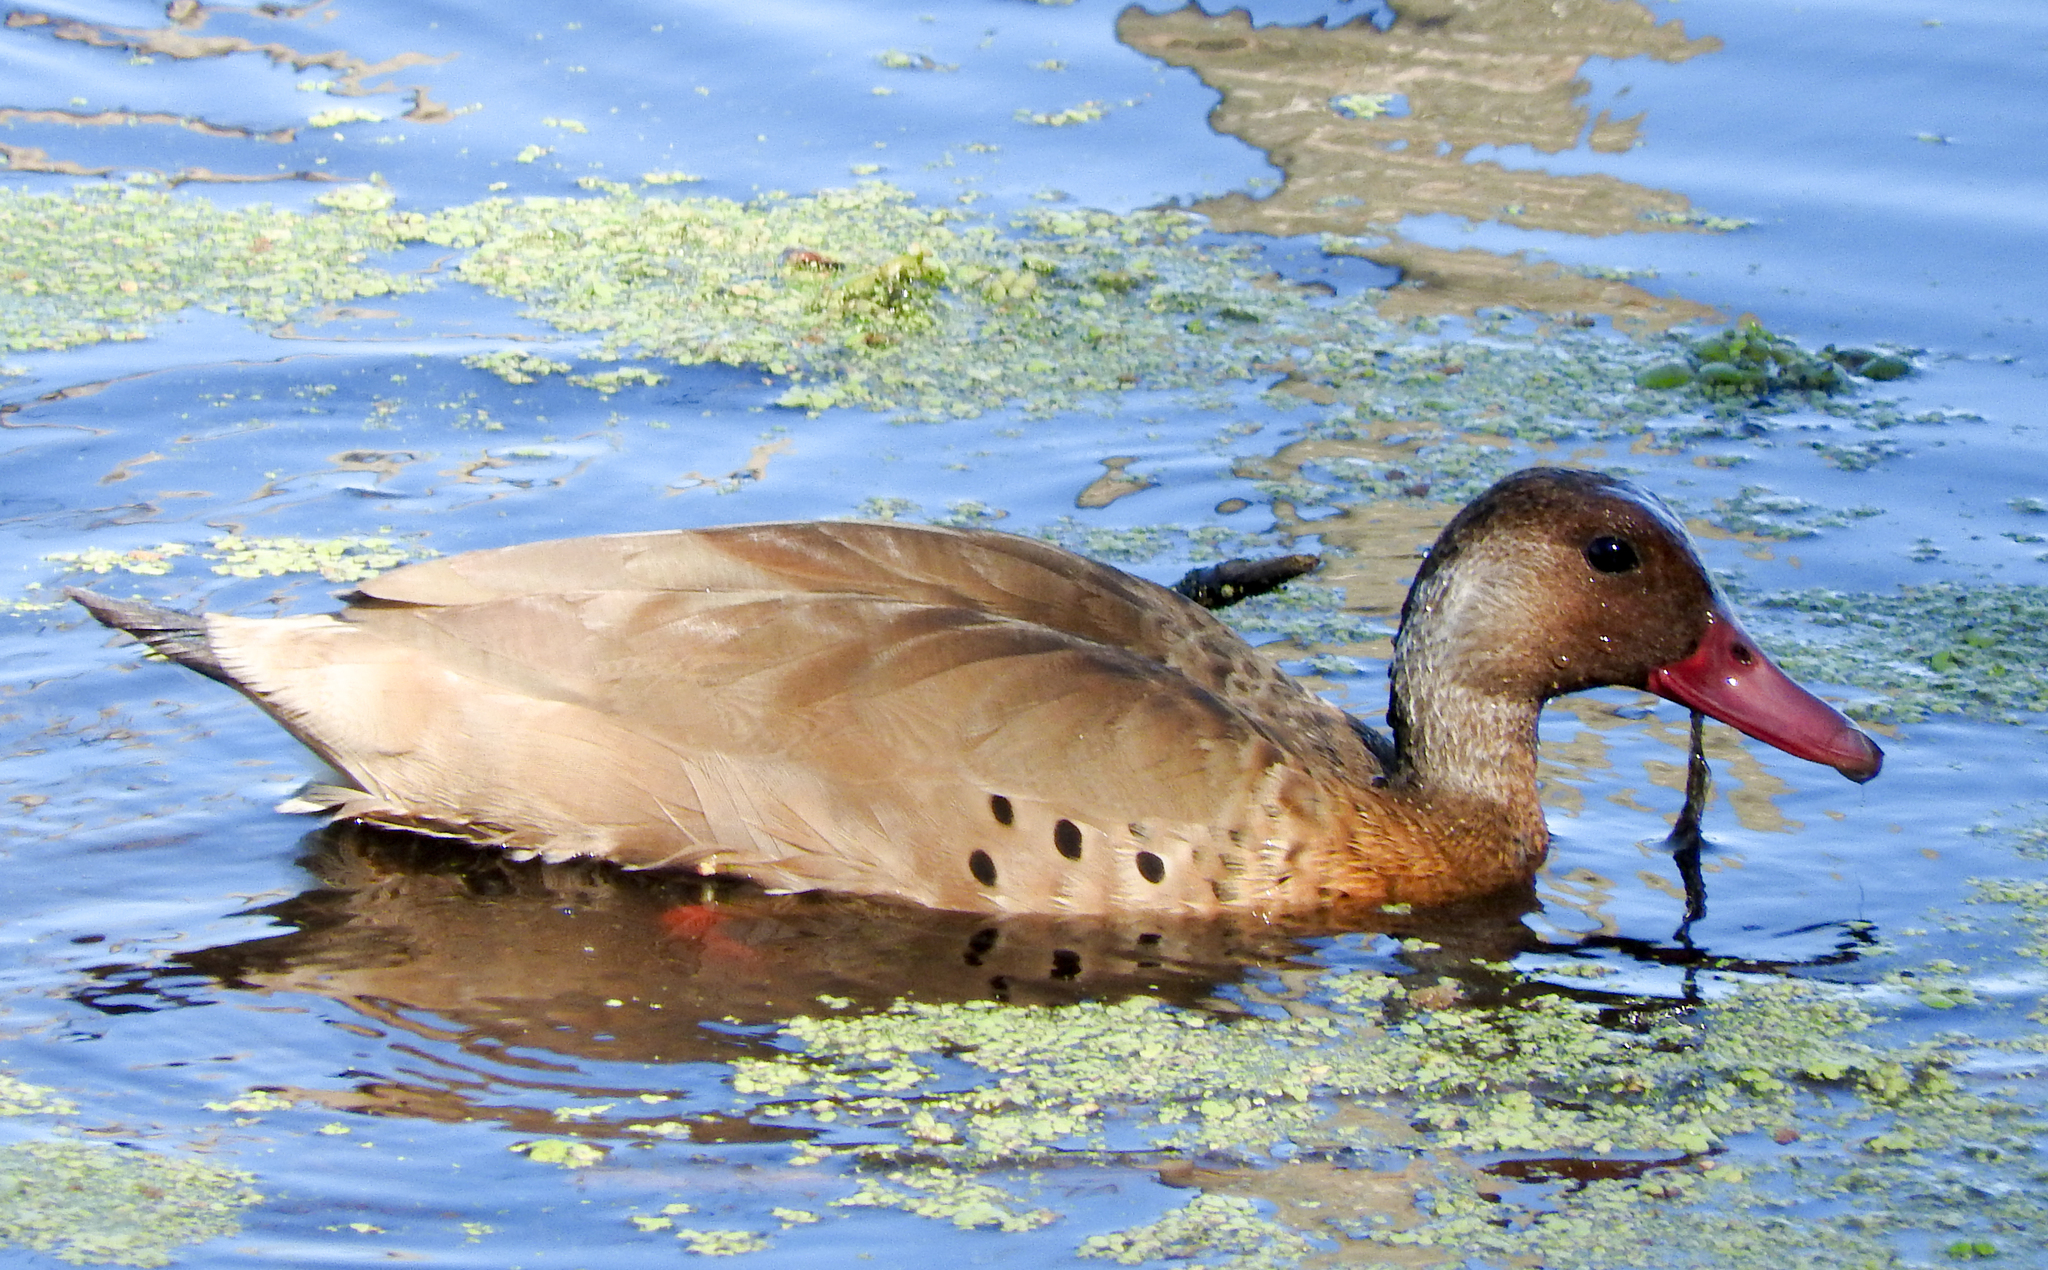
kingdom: Animalia
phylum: Chordata
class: Aves
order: Anseriformes
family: Anatidae
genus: Amazonetta
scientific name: Amazonetta brasiliensis
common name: Brazilian teal
